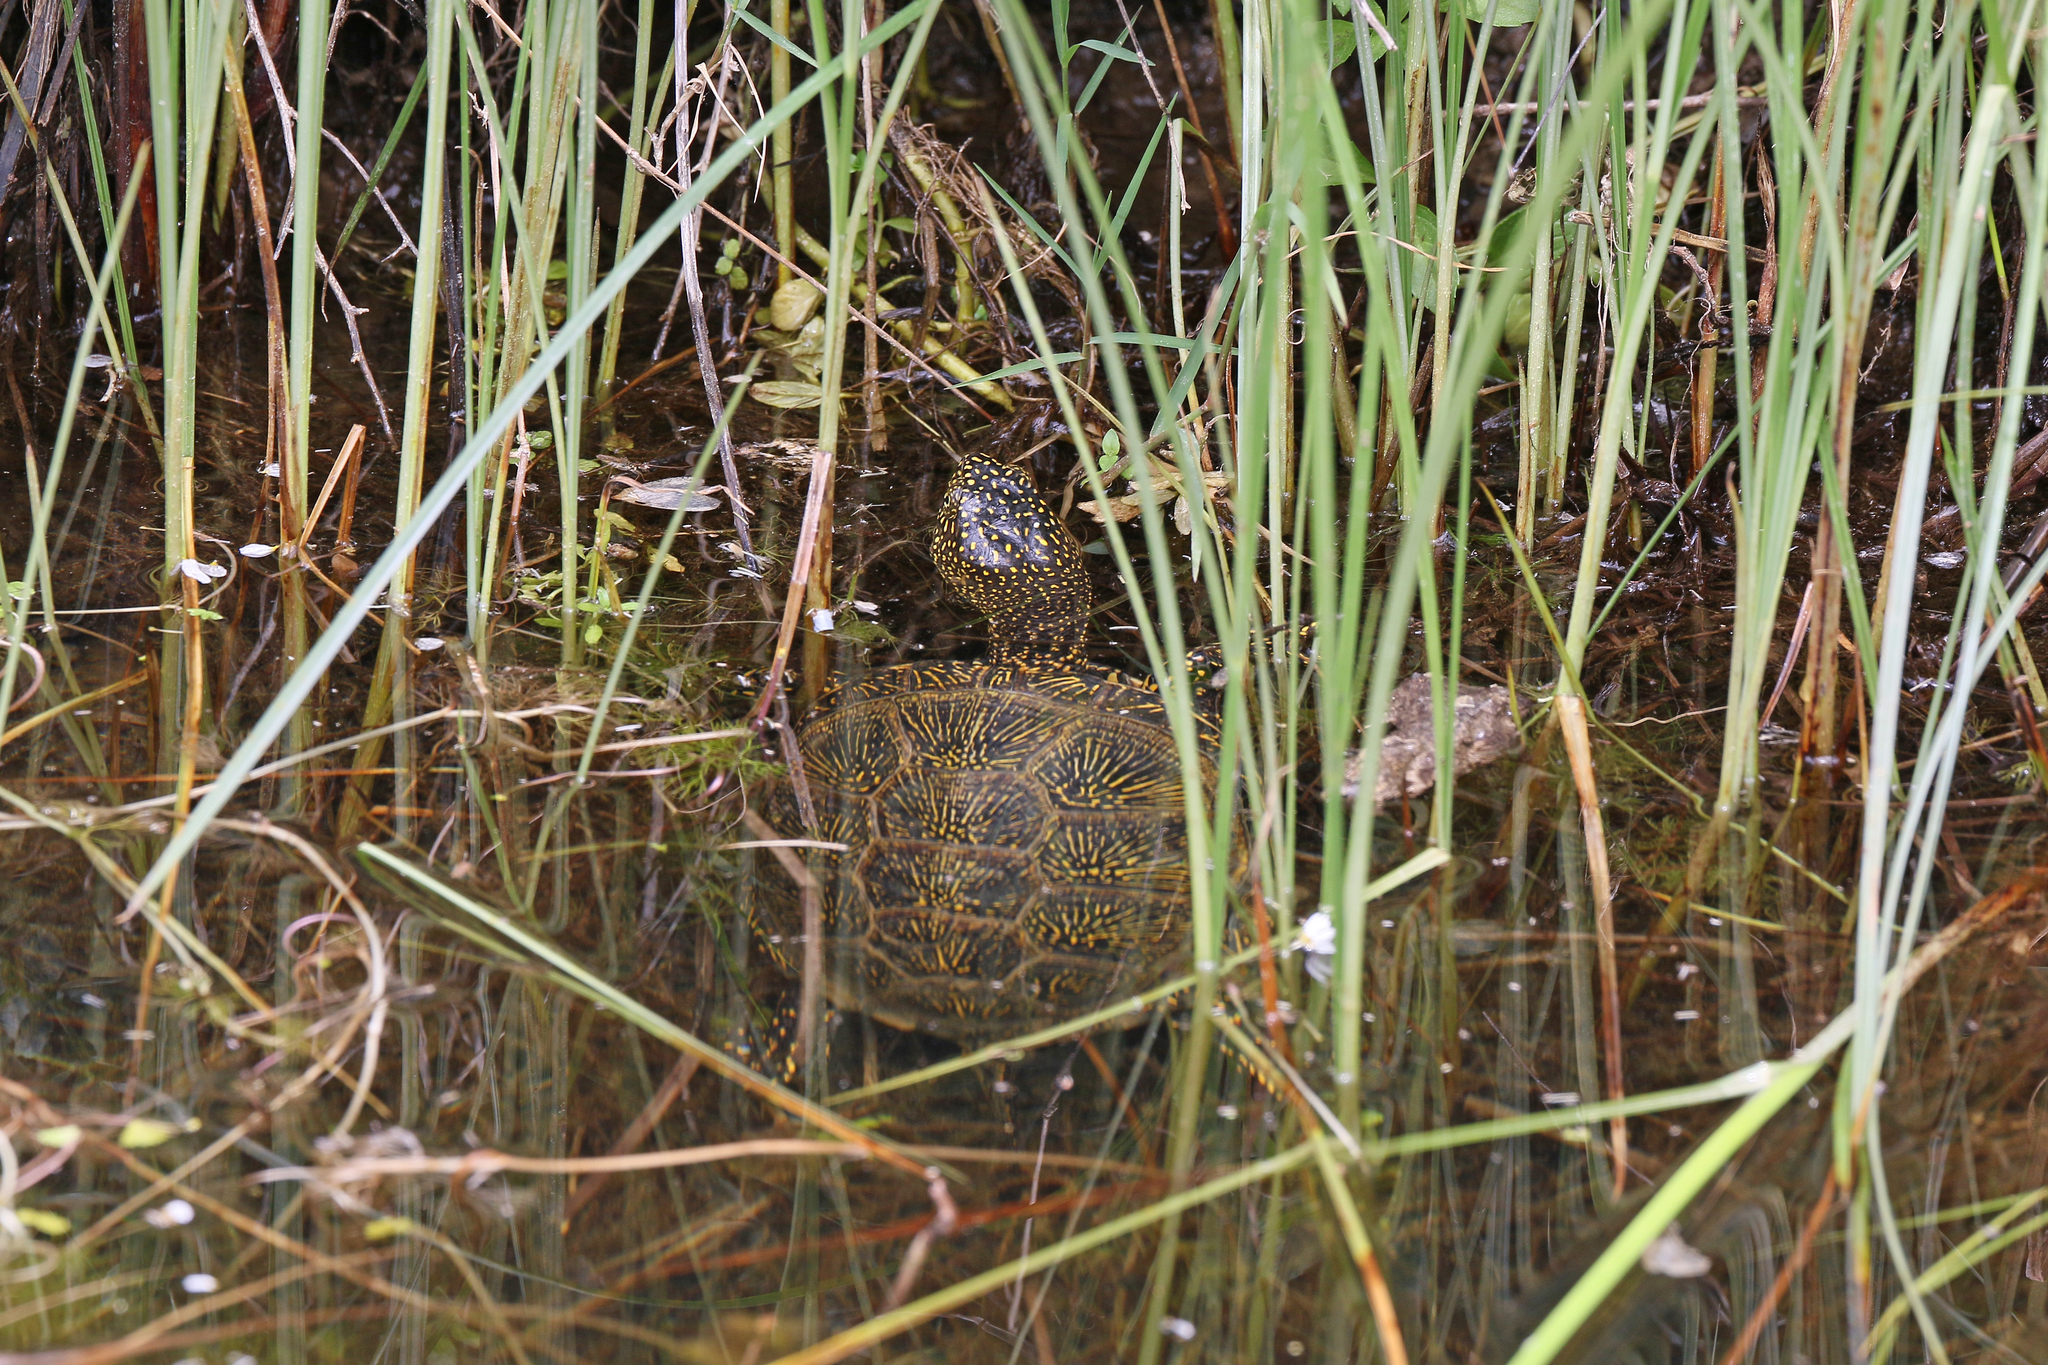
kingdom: Animalia
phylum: Chordata
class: Testudines
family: Emydidae
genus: Emys
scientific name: Emys orbicularis
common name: European pond turtle
